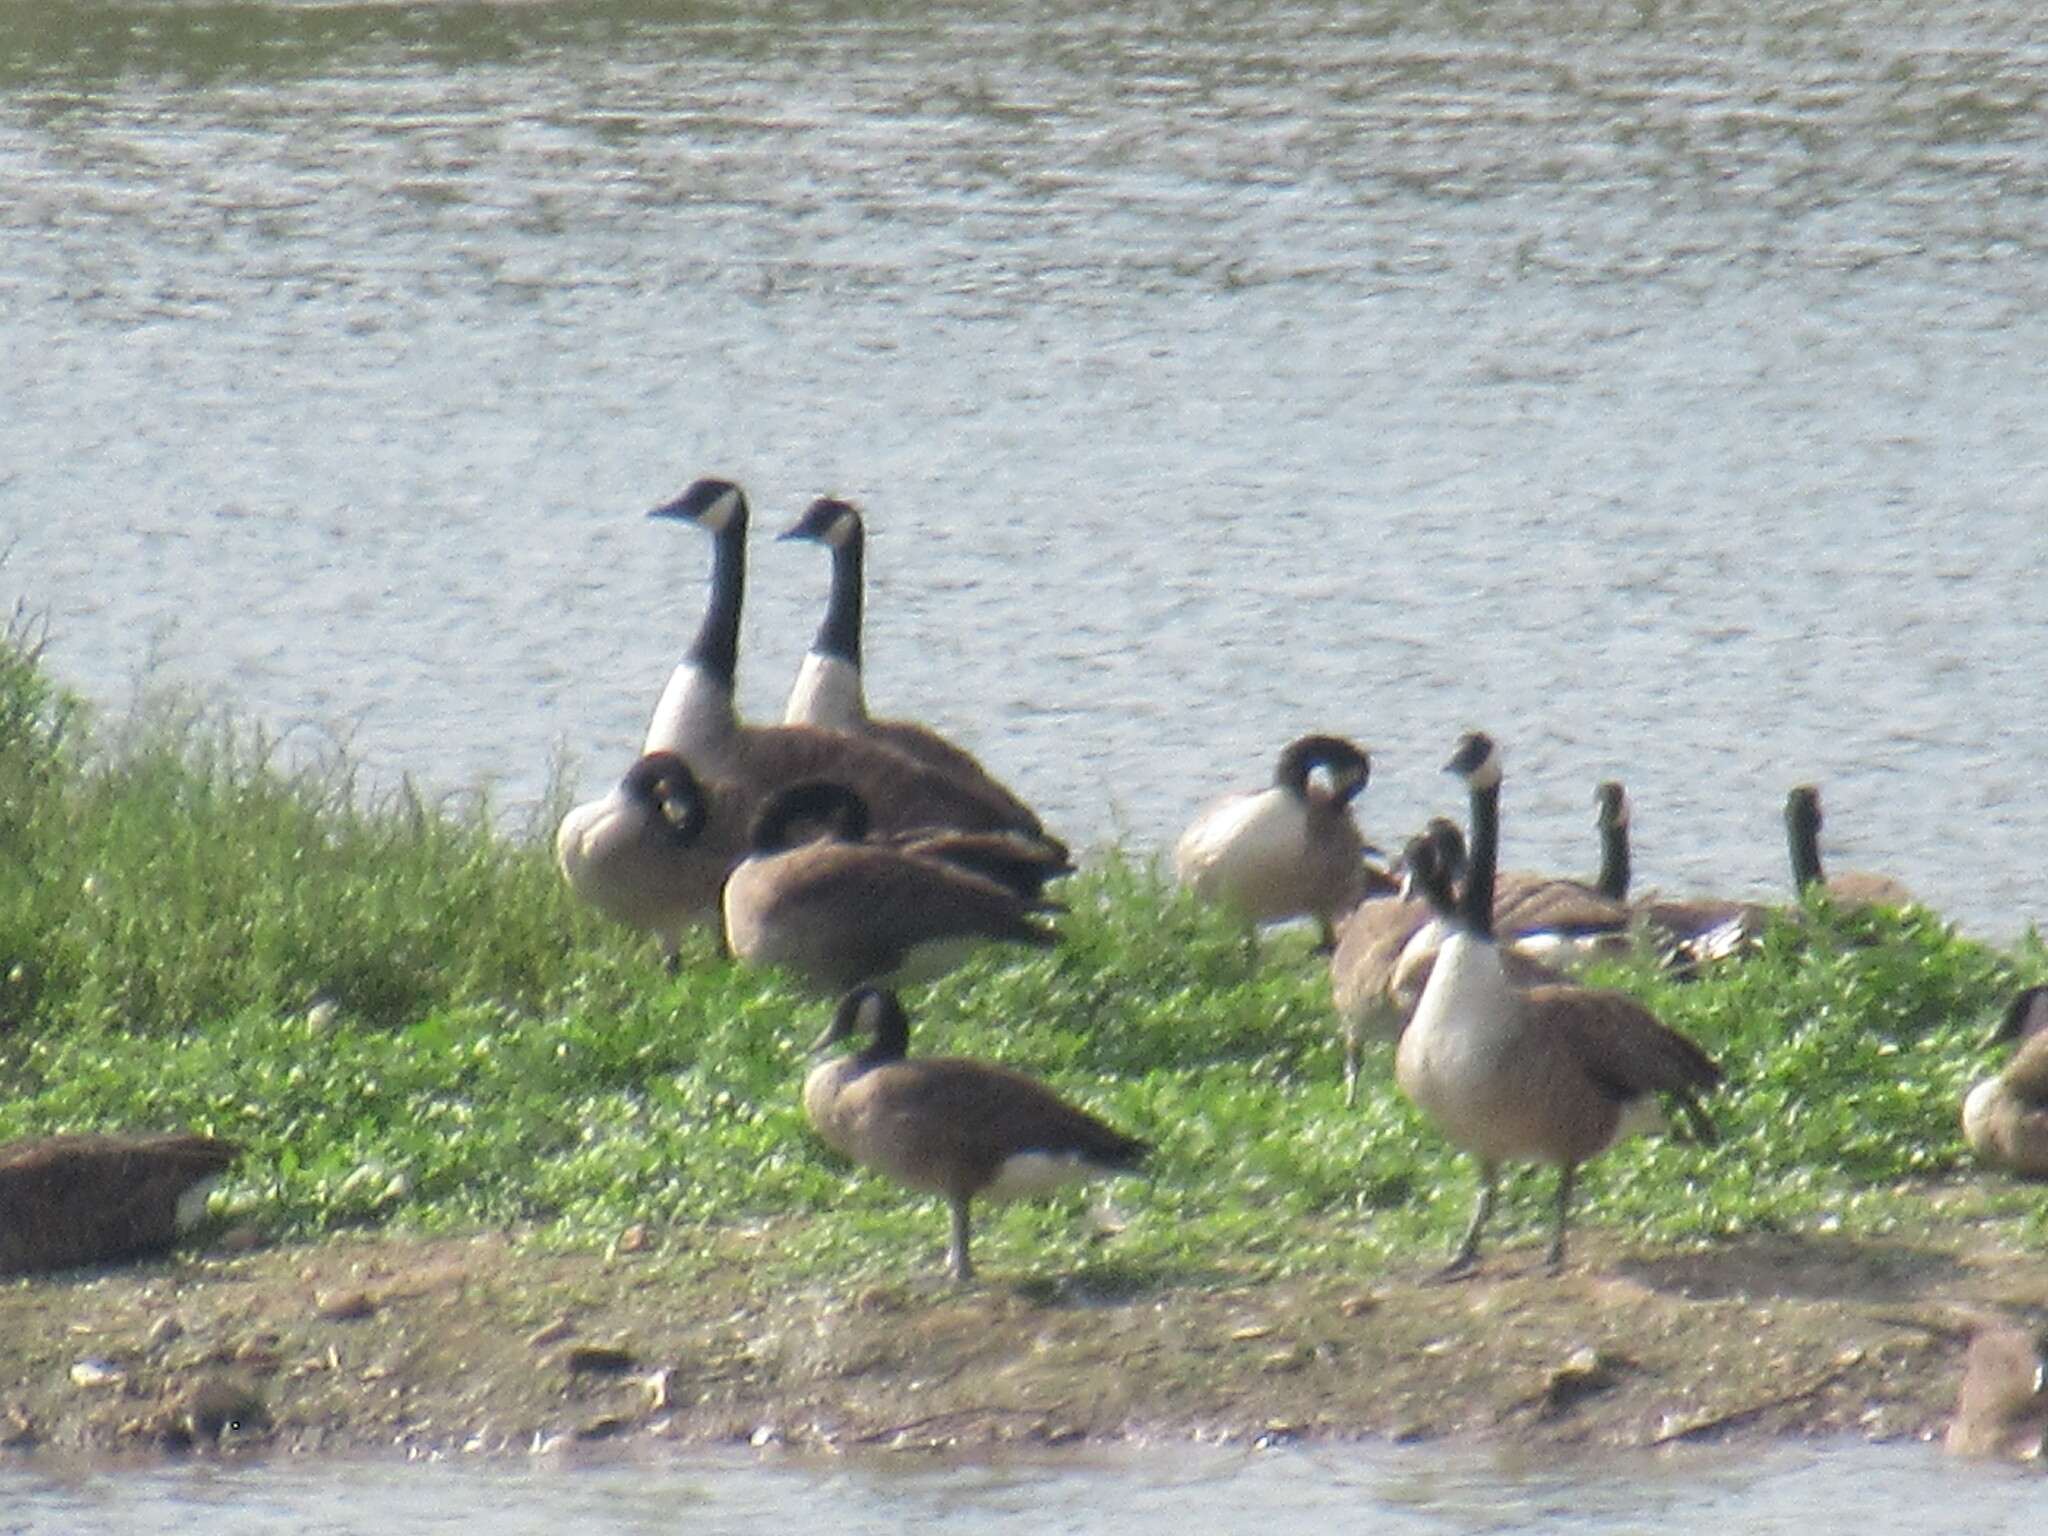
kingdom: Animalia
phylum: Chordata
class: Aves
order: Anseriformes
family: Anatidae
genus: Branta
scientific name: Branta canadensis
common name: Canada goose
